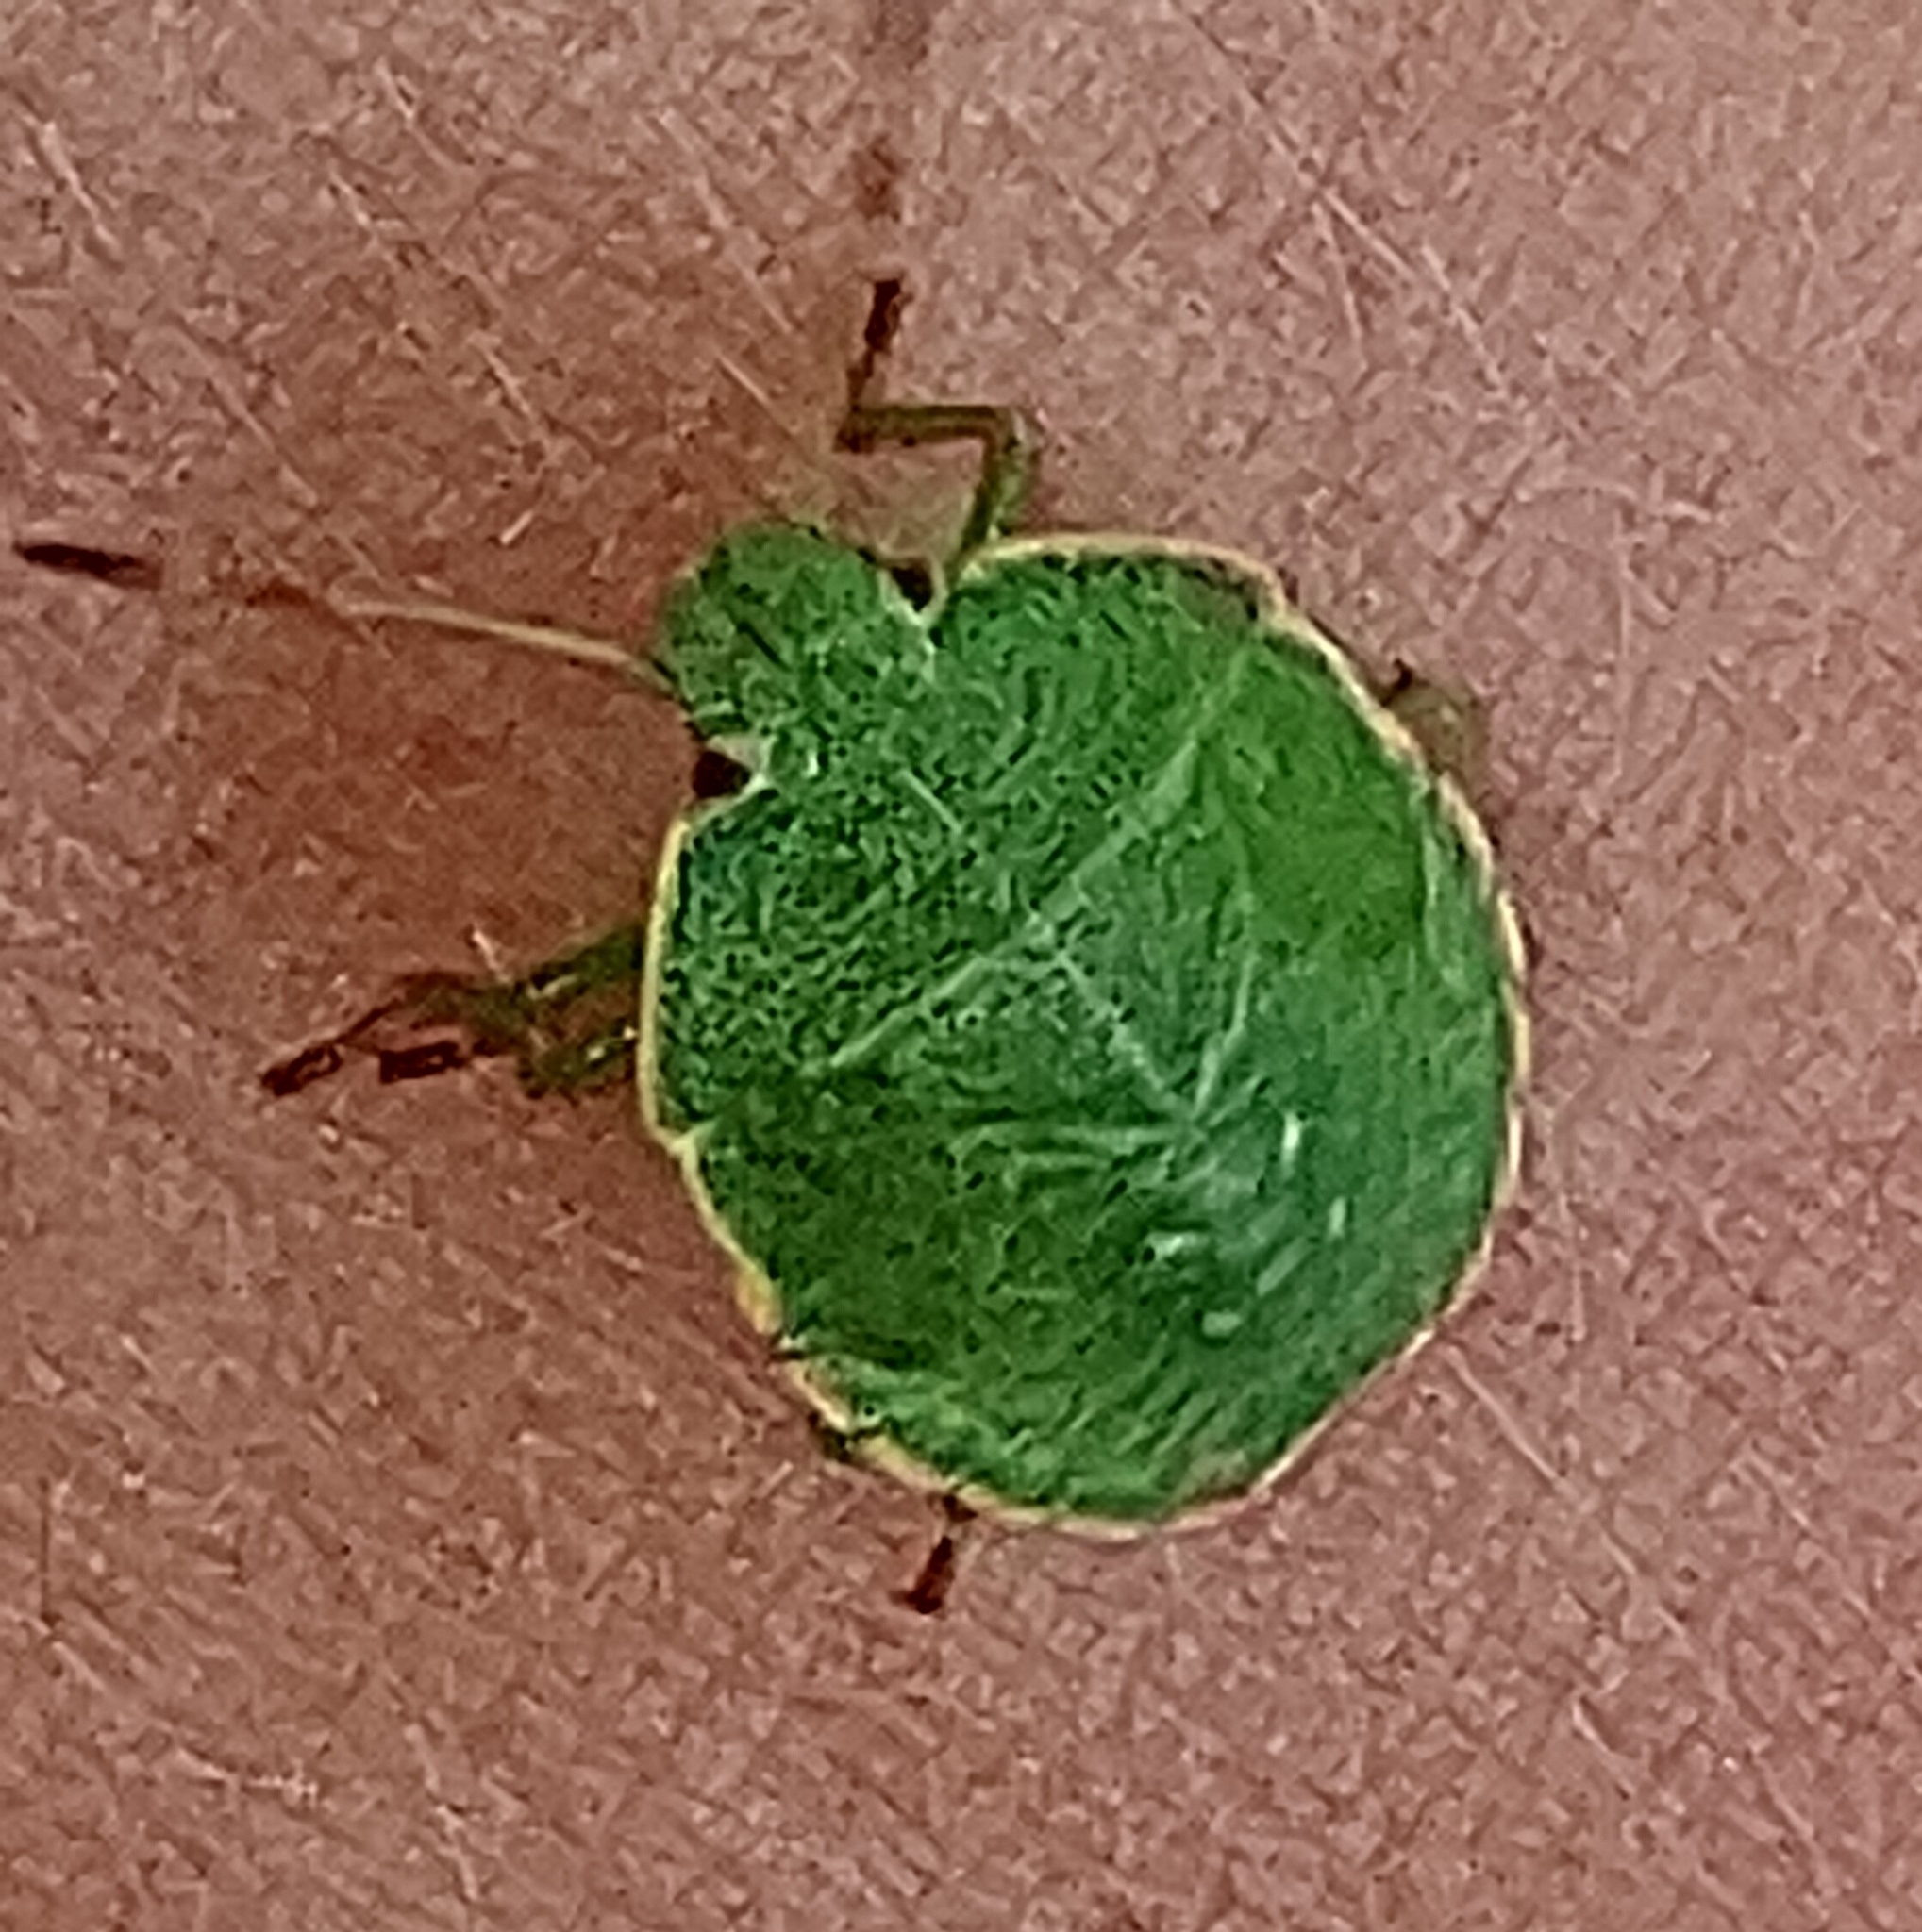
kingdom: Animalia
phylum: Arthropoda
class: Insecta
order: Hemiptera
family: Pentatomidae
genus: Palomena
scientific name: Palomena prasina
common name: Green shieldbug
